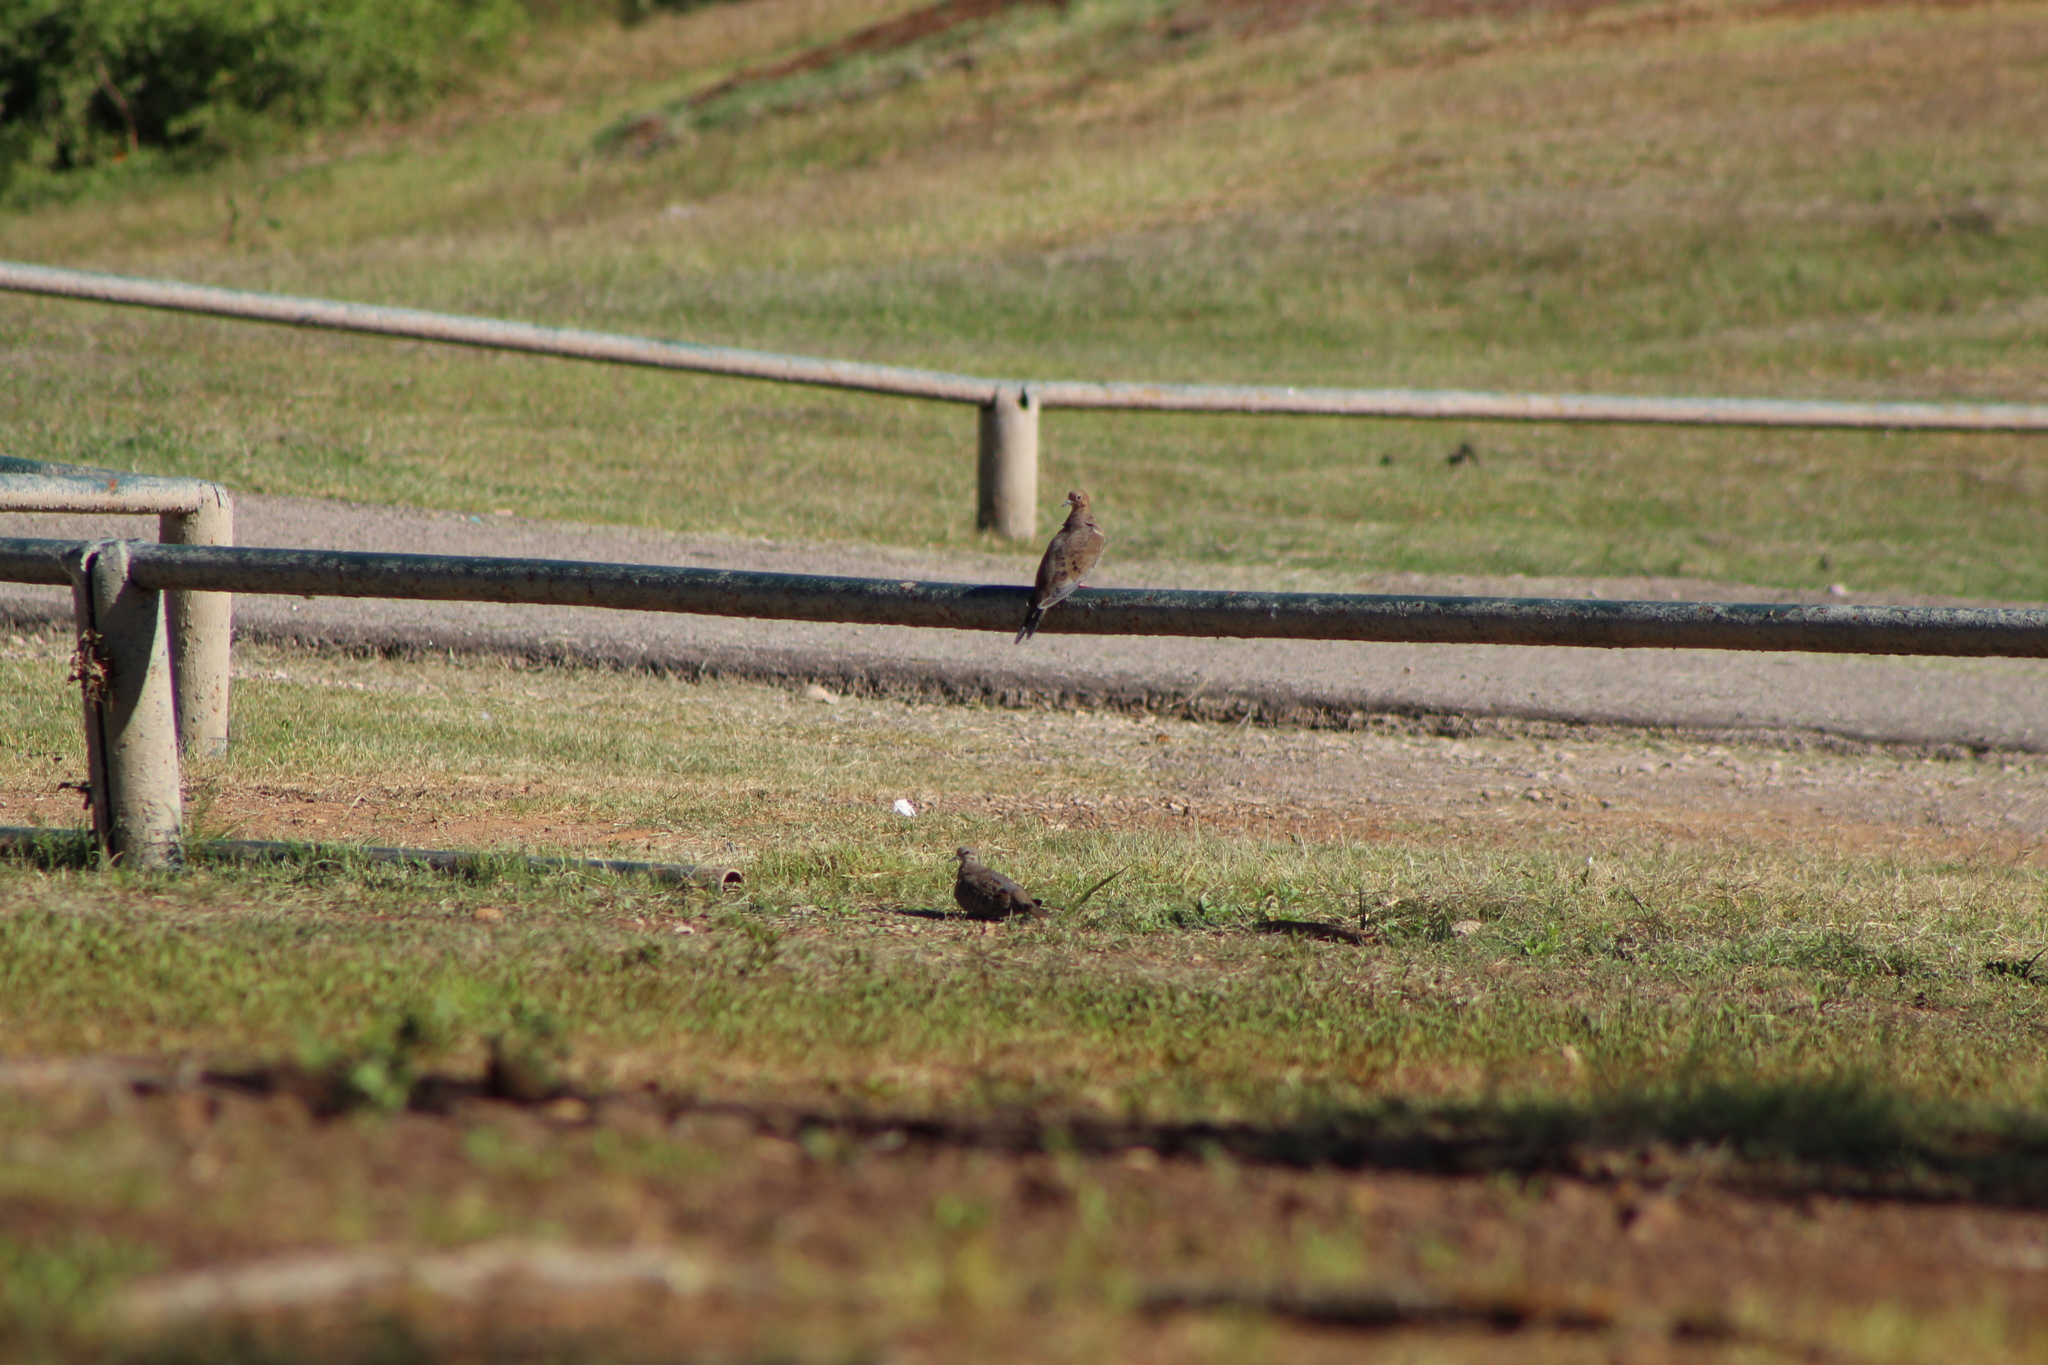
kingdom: Animalia
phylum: Chordata
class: Aves
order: Columbiformes
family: Columbidae
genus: Zenaida
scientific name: Zenaida macroura
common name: Mourning dove
